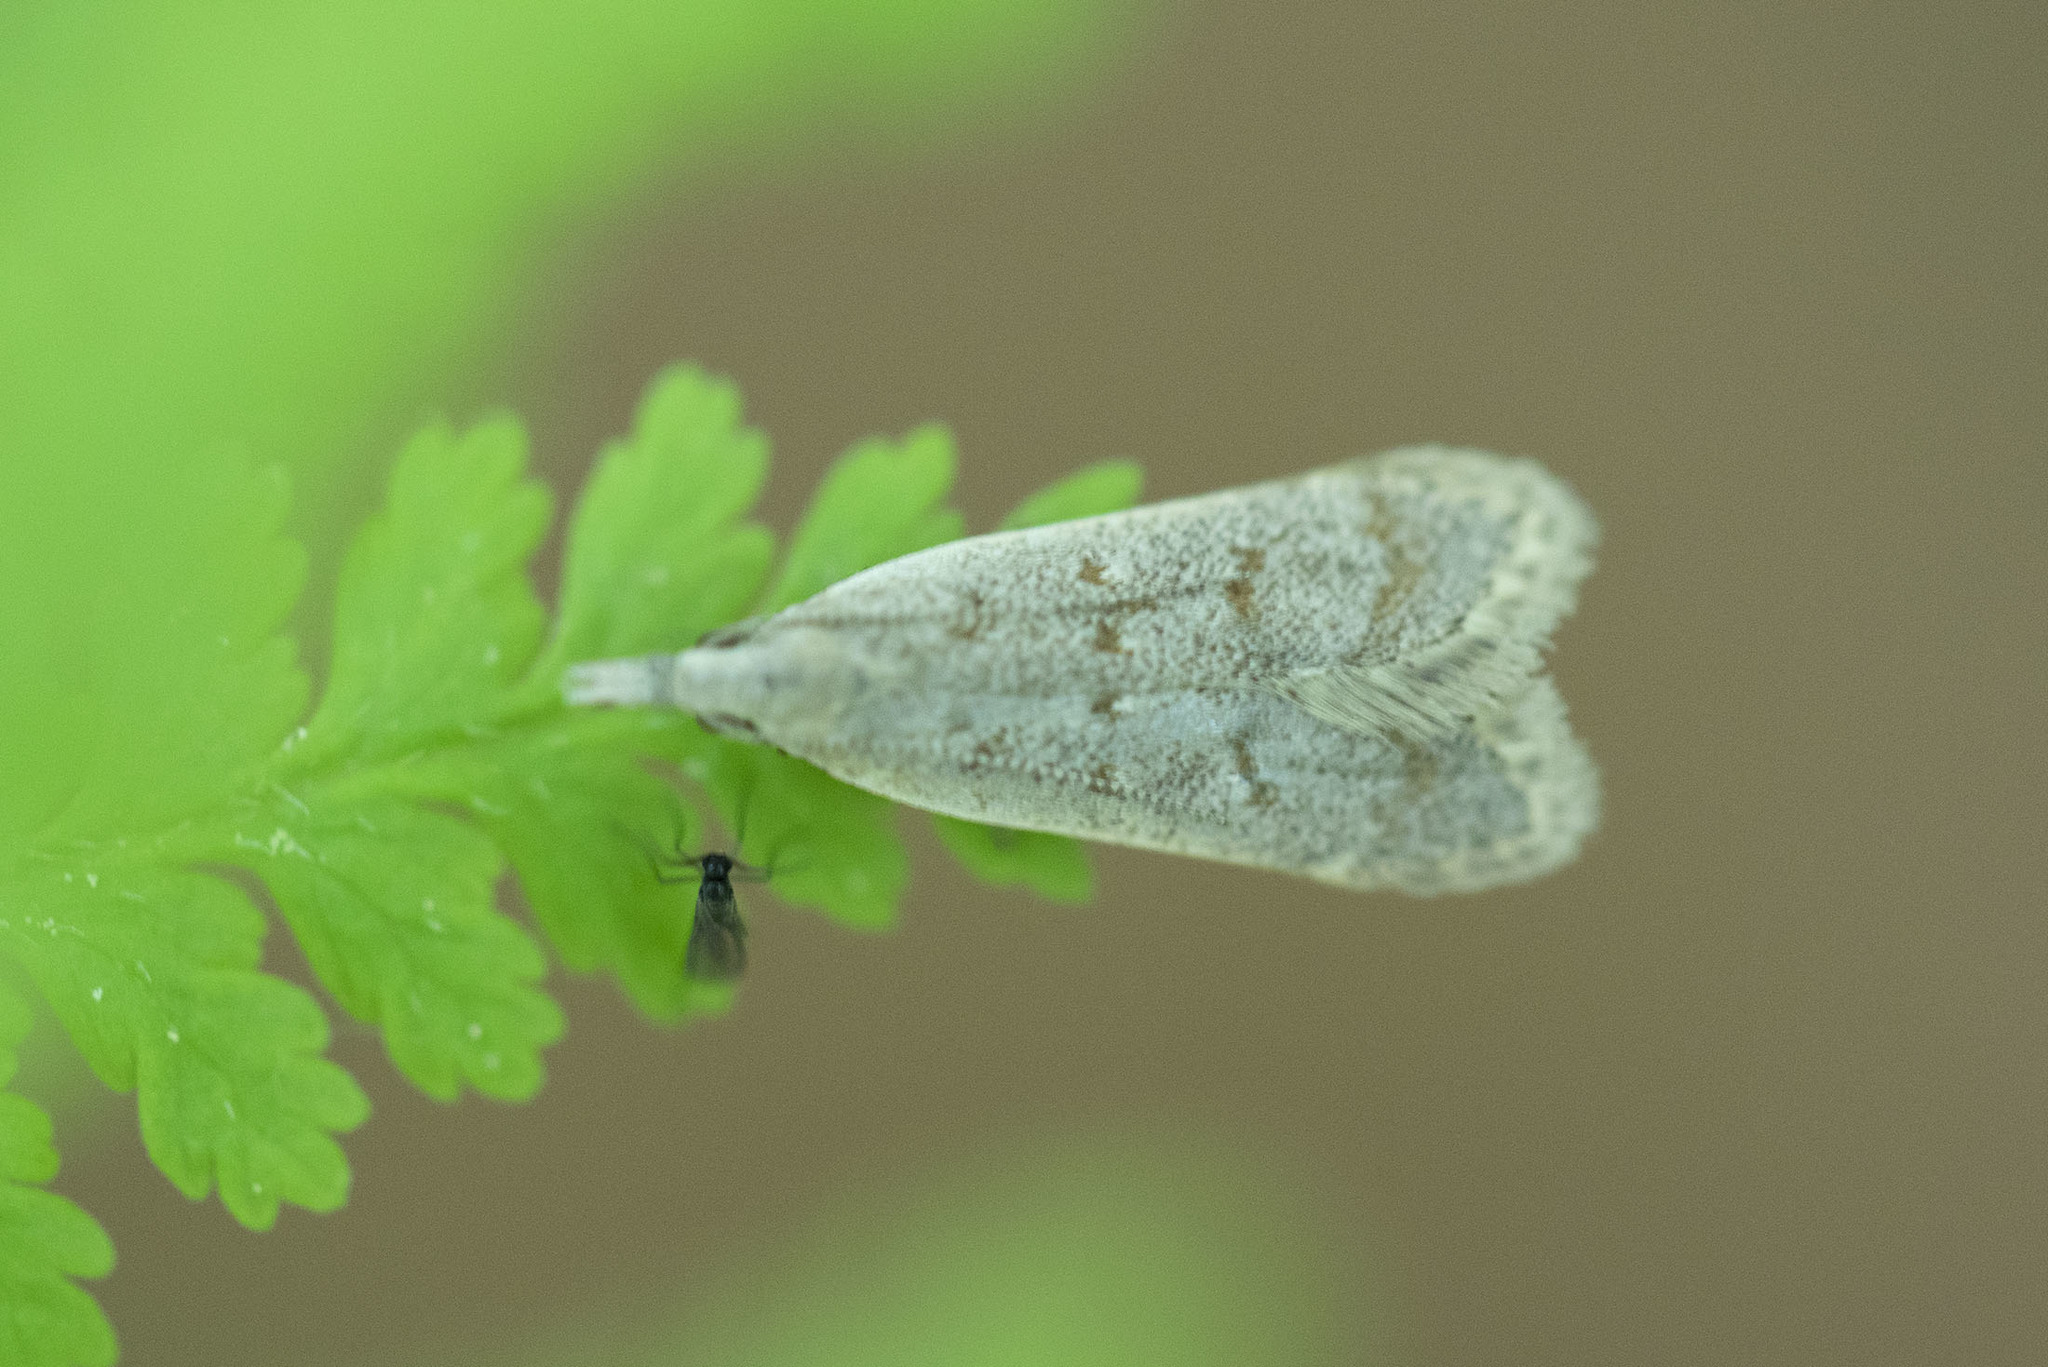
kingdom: Animalia
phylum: Arthropoda
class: Insecta
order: Lepidoptera
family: Gelechiidae
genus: Dichomeris
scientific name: Dichomeris punctidiscellus
